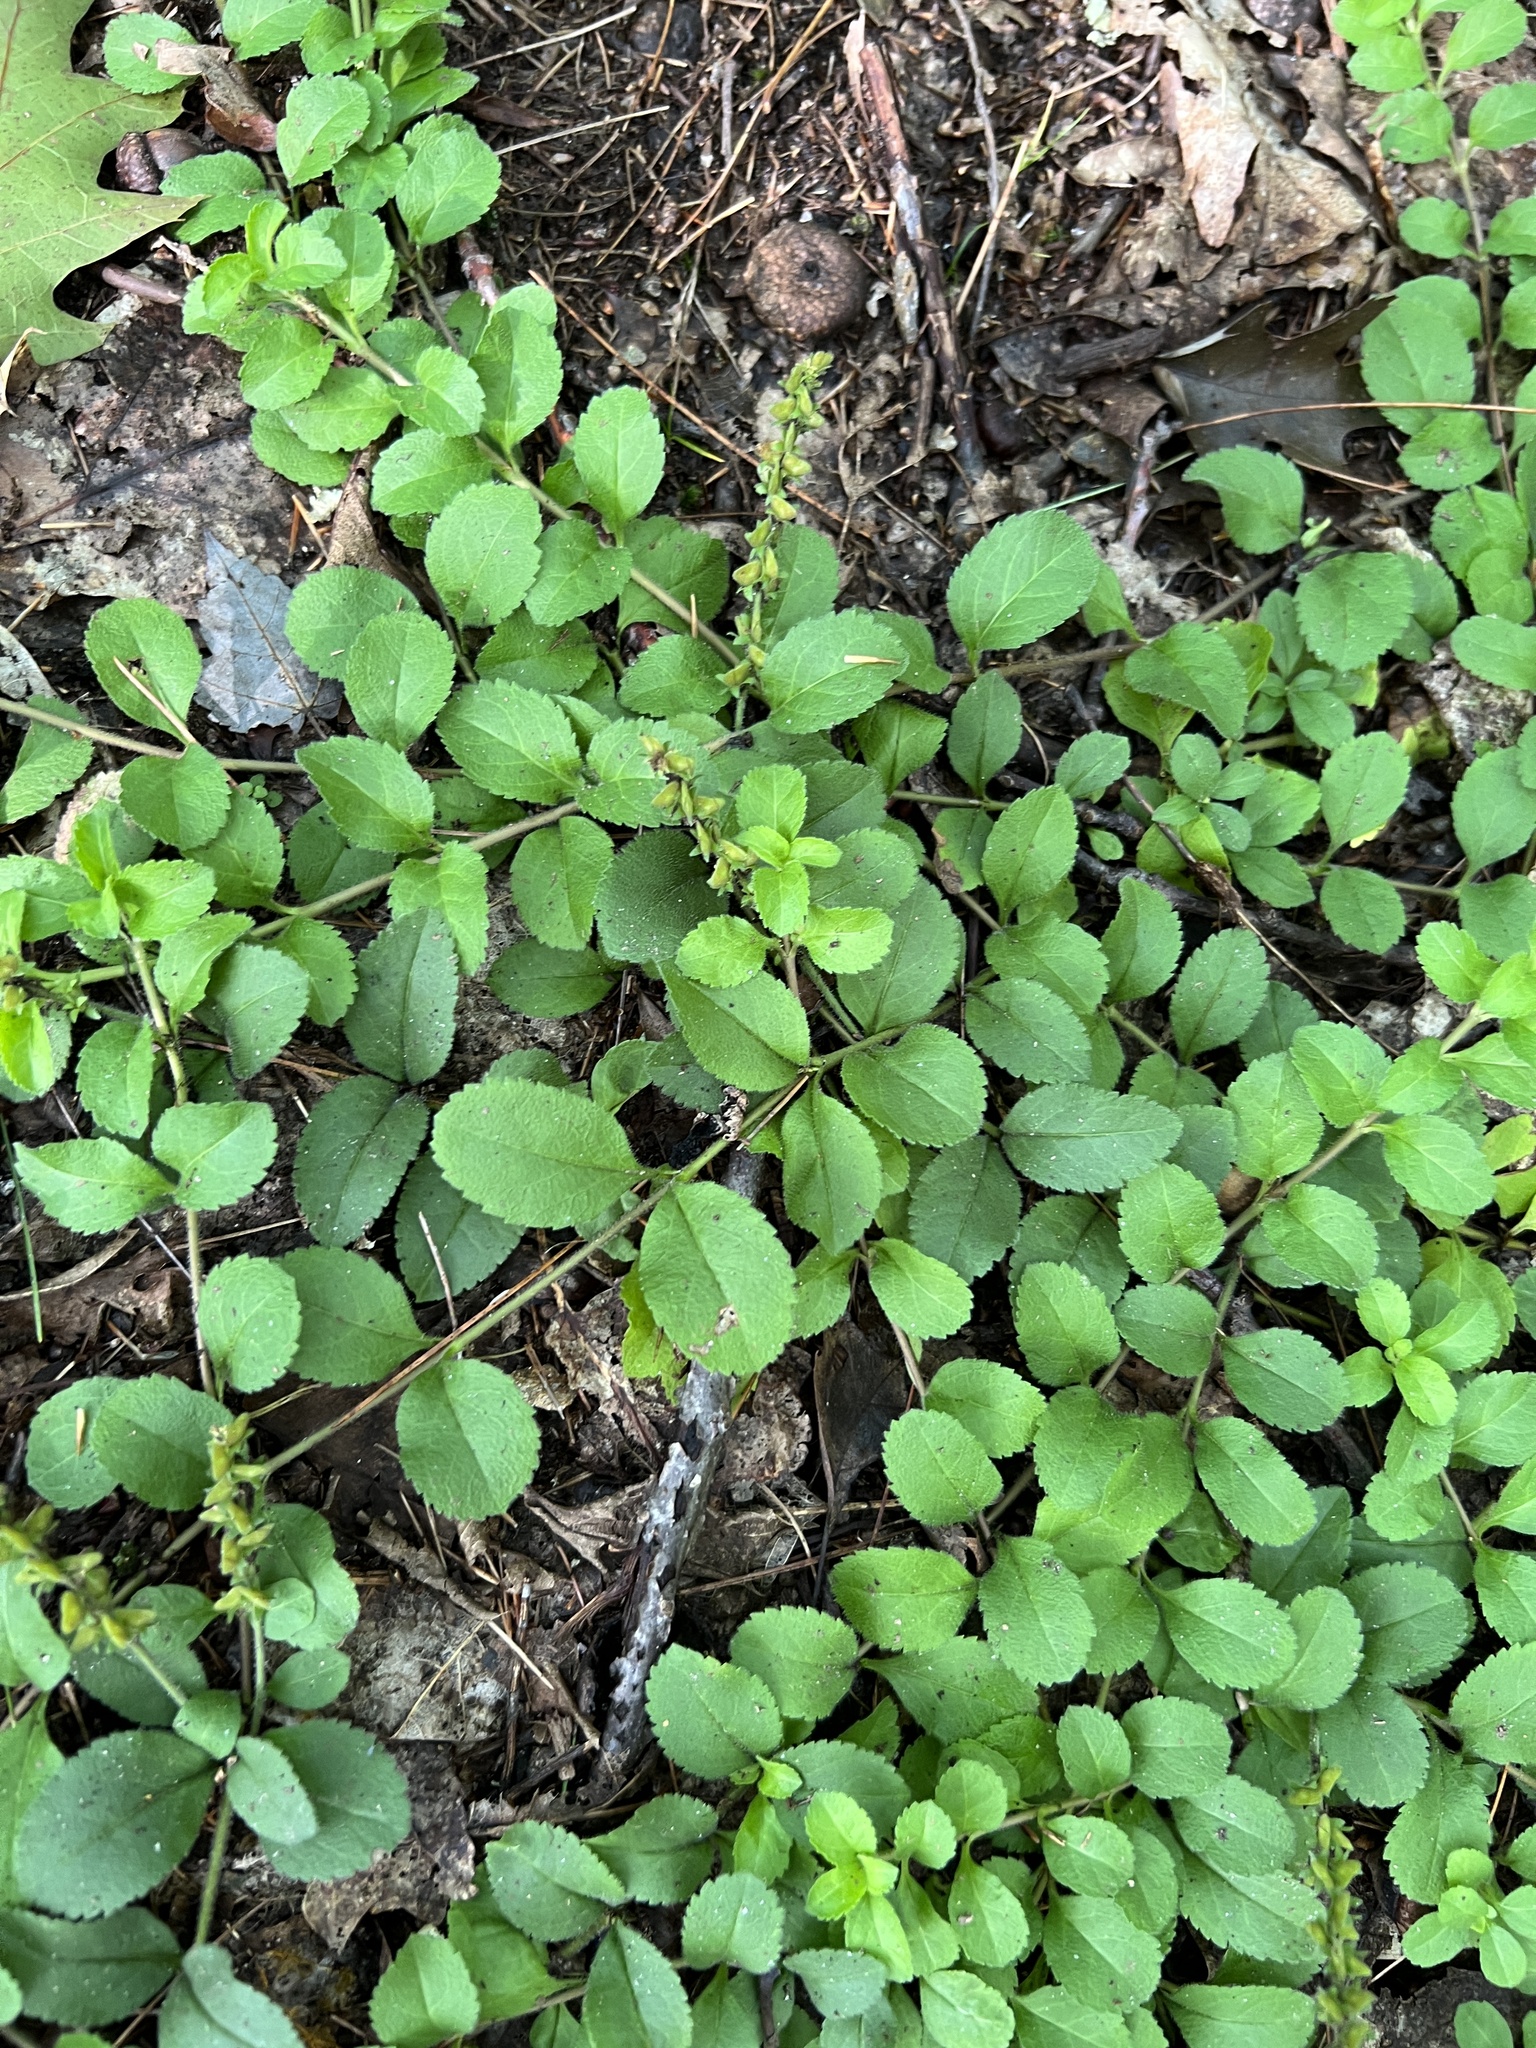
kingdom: Plantae
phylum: Tracheophyta
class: Magnoliopsida
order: Lamiales
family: Plantaginaceae
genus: Veronica
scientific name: Veronica officinalis
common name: Common speedwell
